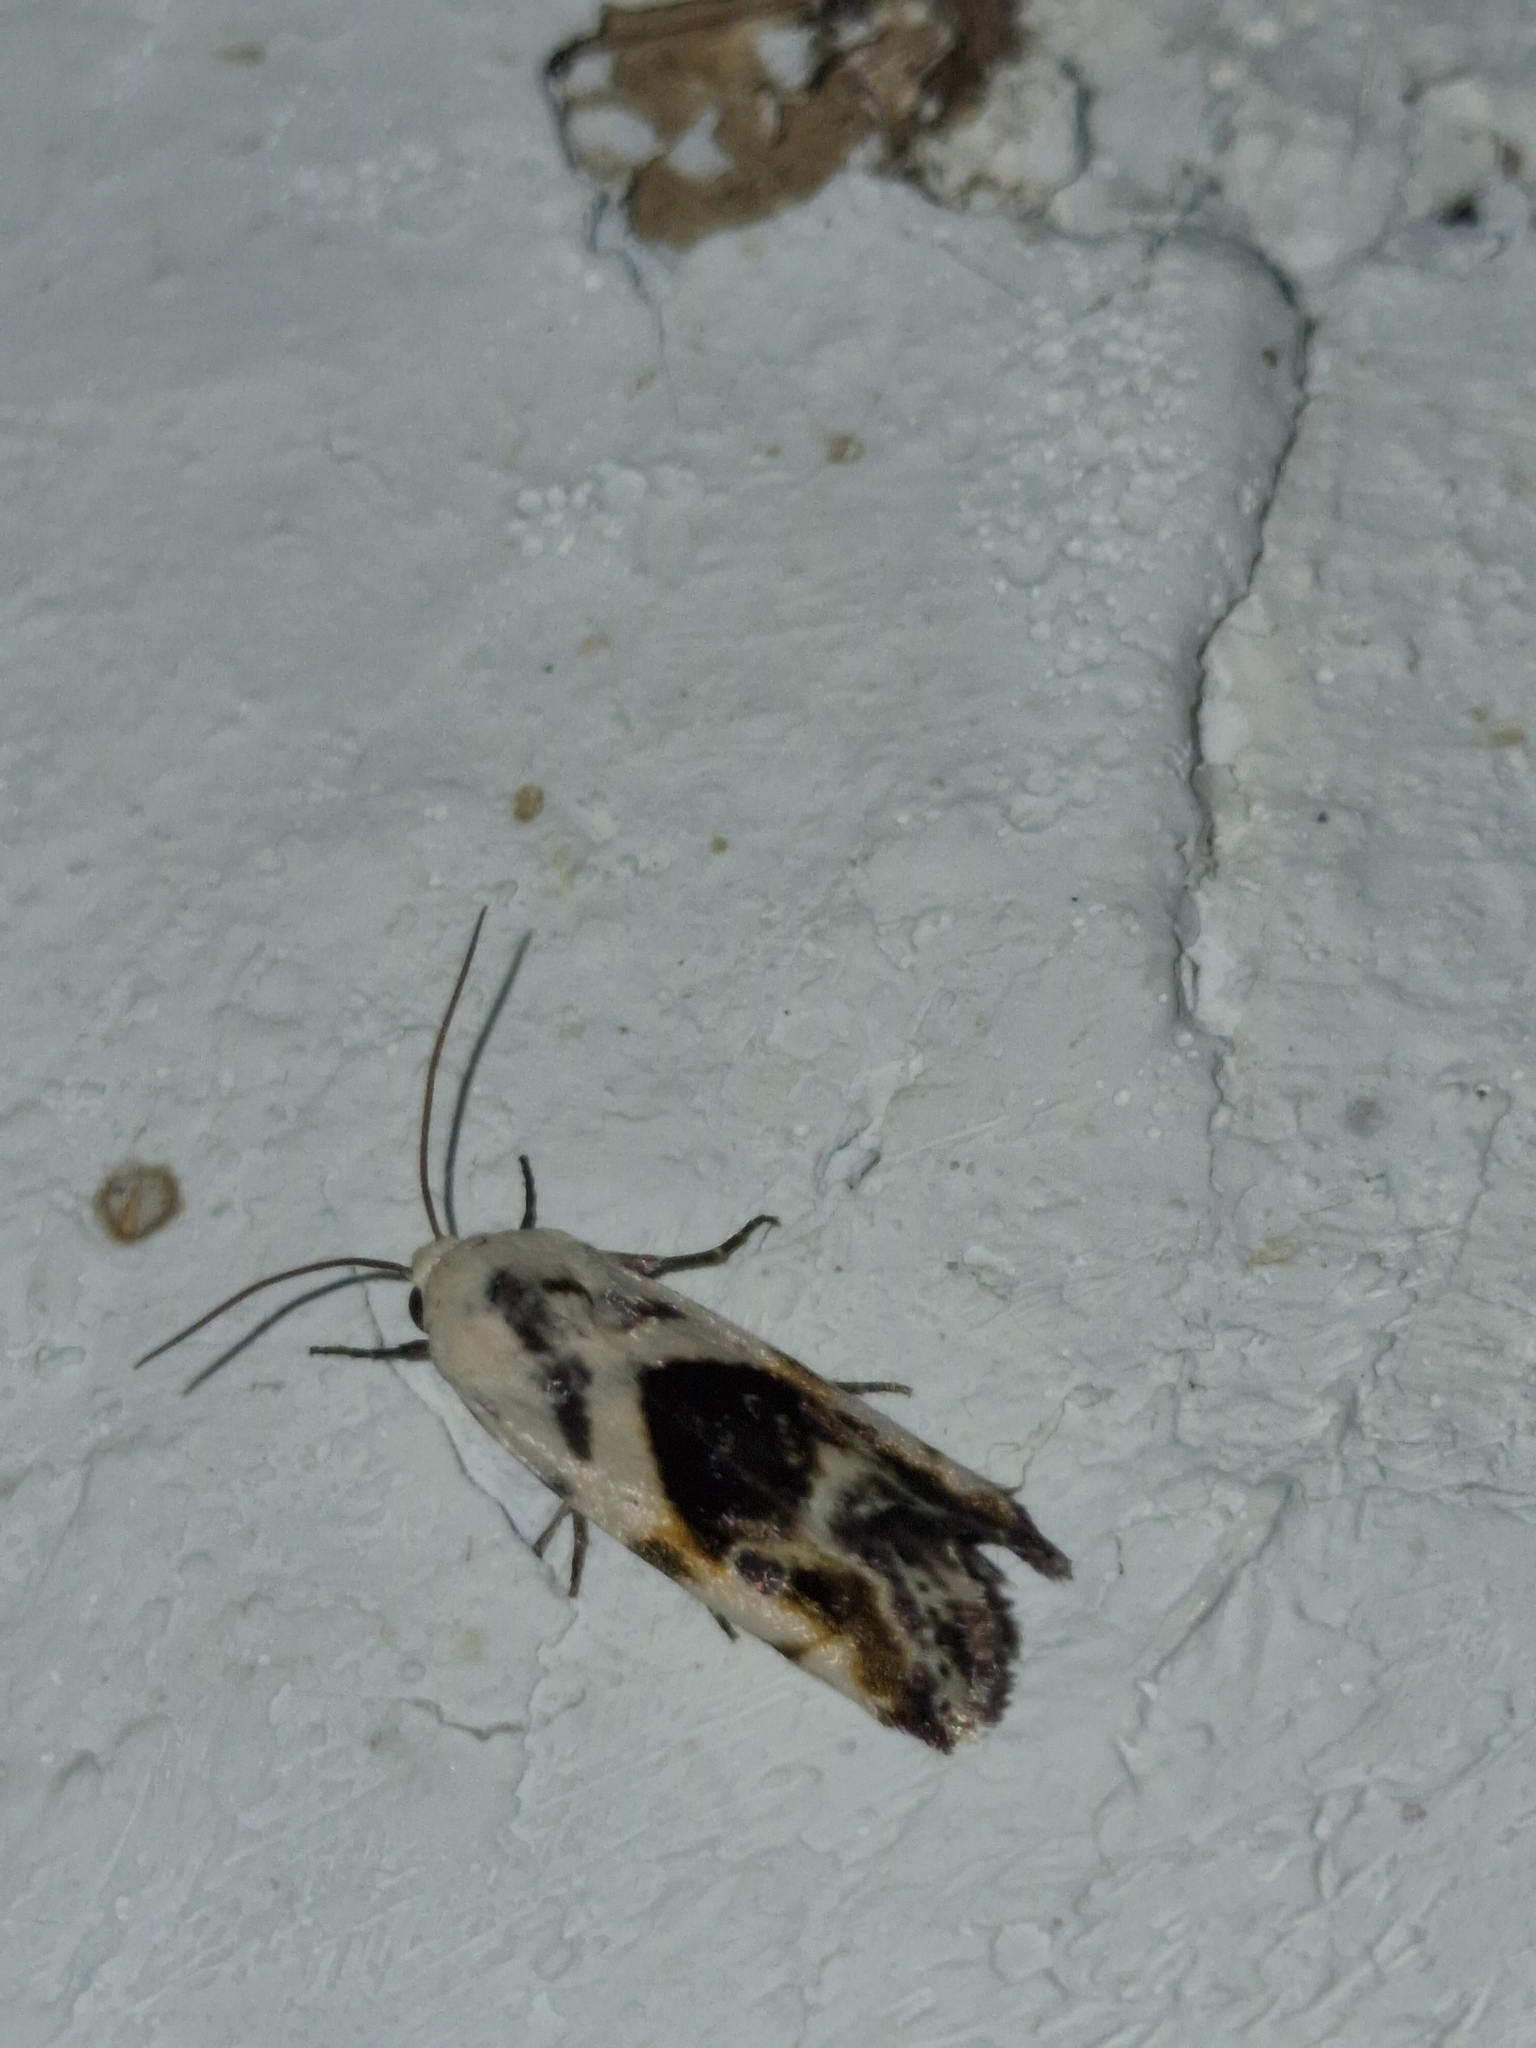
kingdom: Animalia
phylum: Arthropoda
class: Insecta
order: Lepidoptera
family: Noctuidae
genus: Acontia
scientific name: Acontia candefacta
